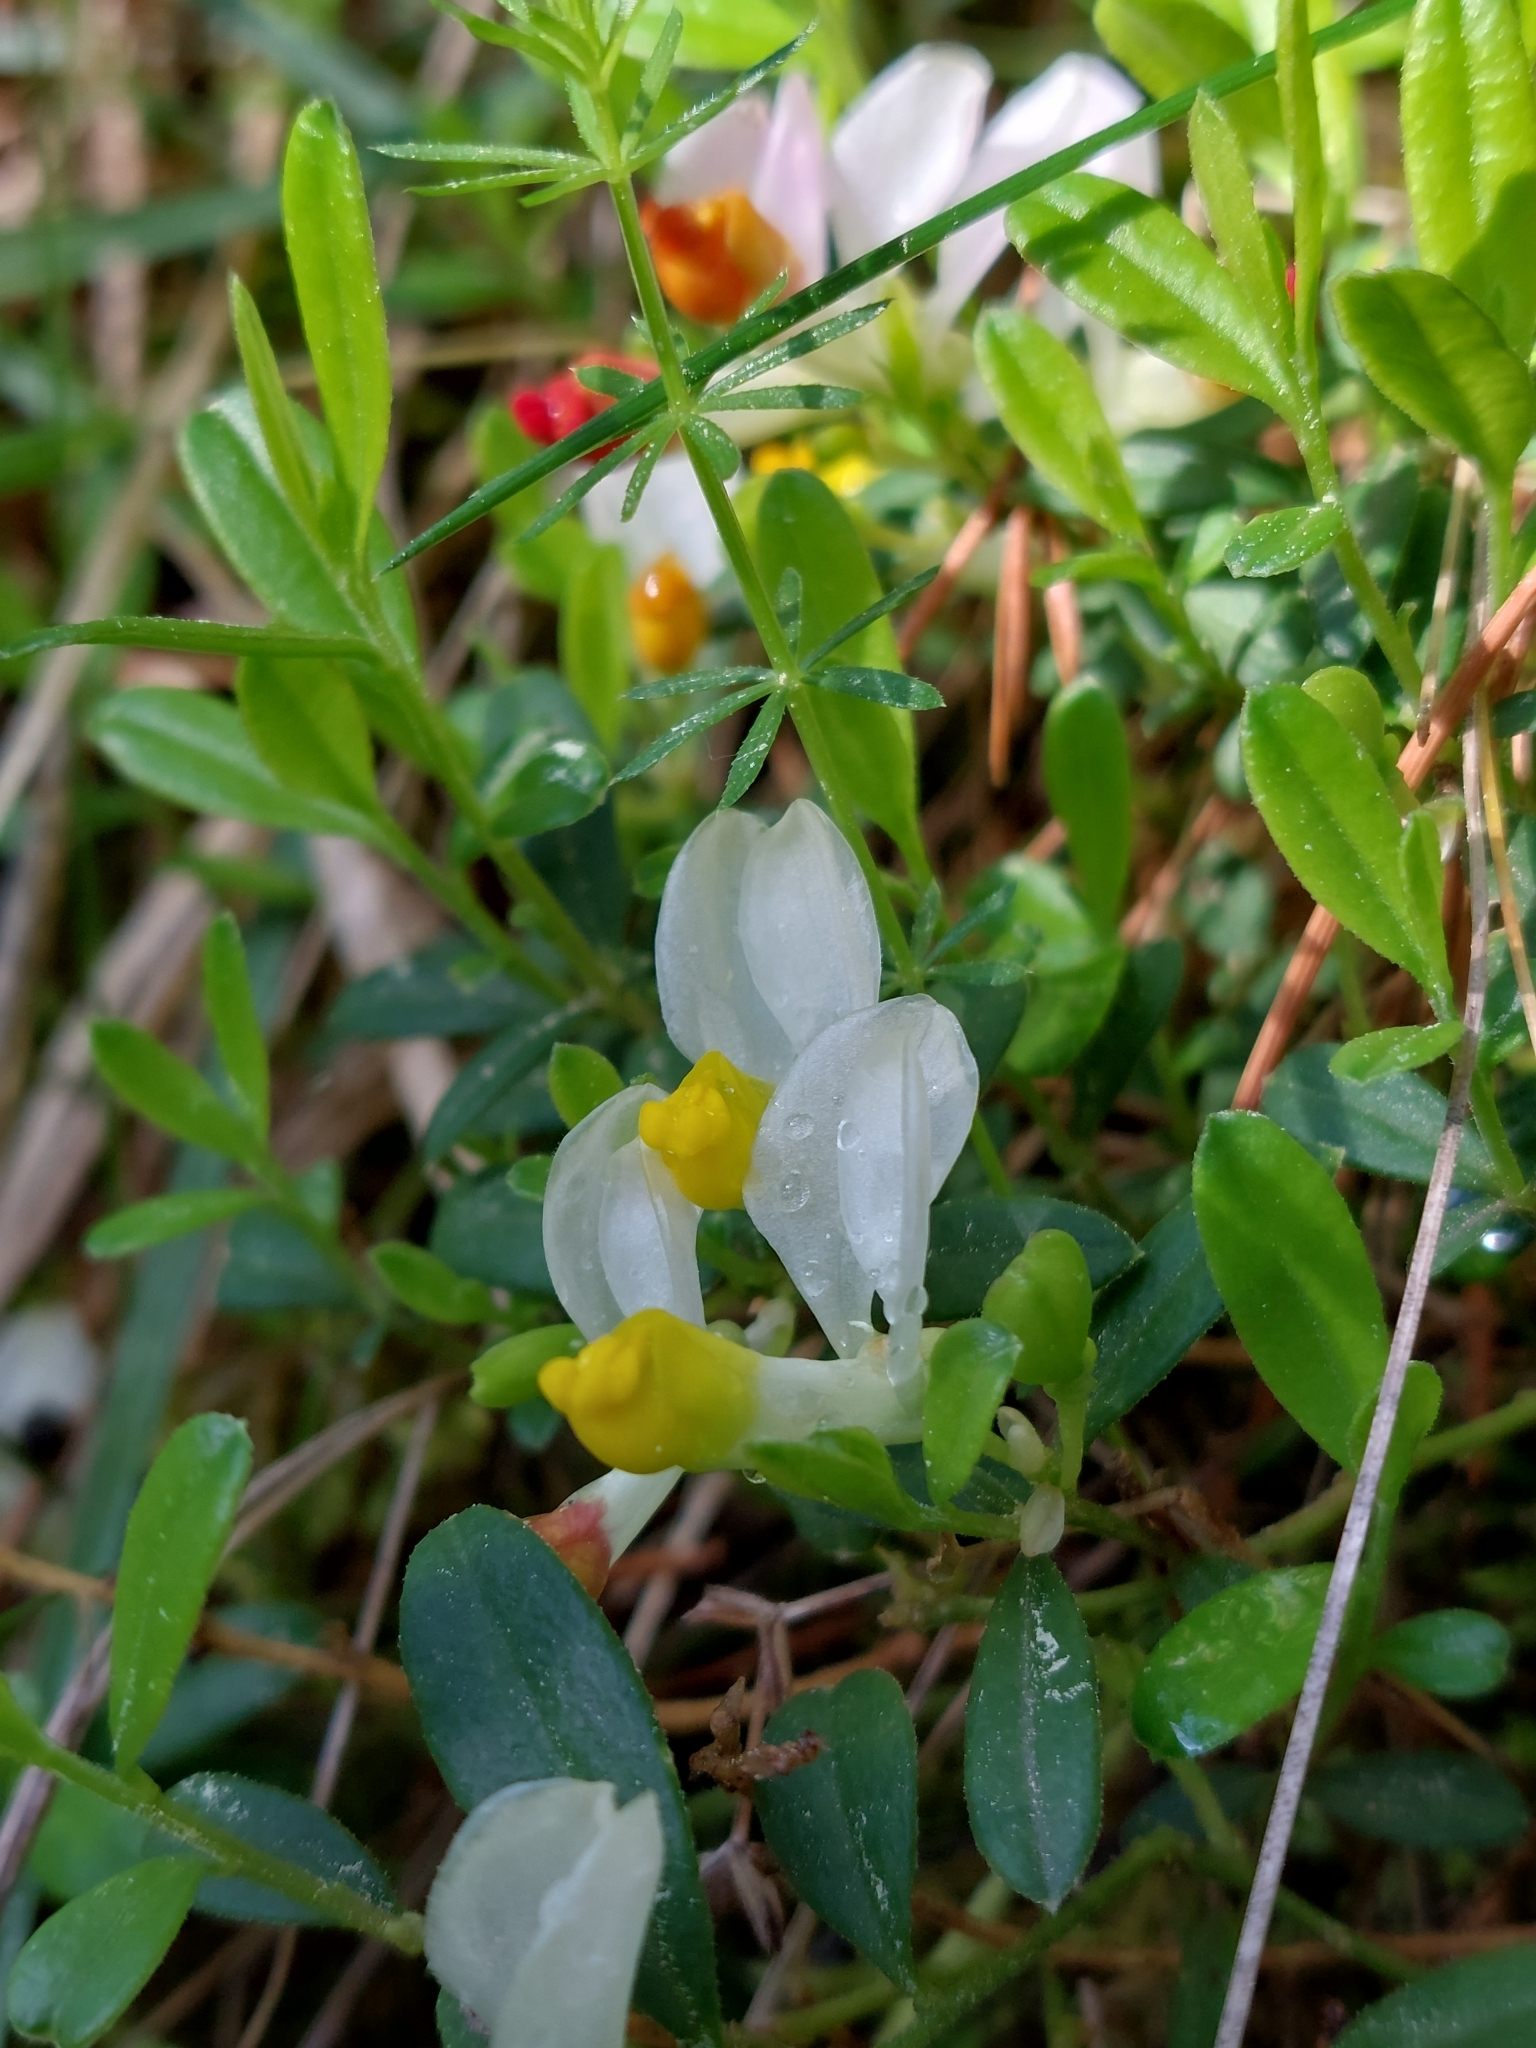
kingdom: Plantae
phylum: Tracheophyta
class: Magnoliopsida
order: Fabales
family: Polygalaceae
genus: Polygaloides
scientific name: Polygaloides chamaebuxus
